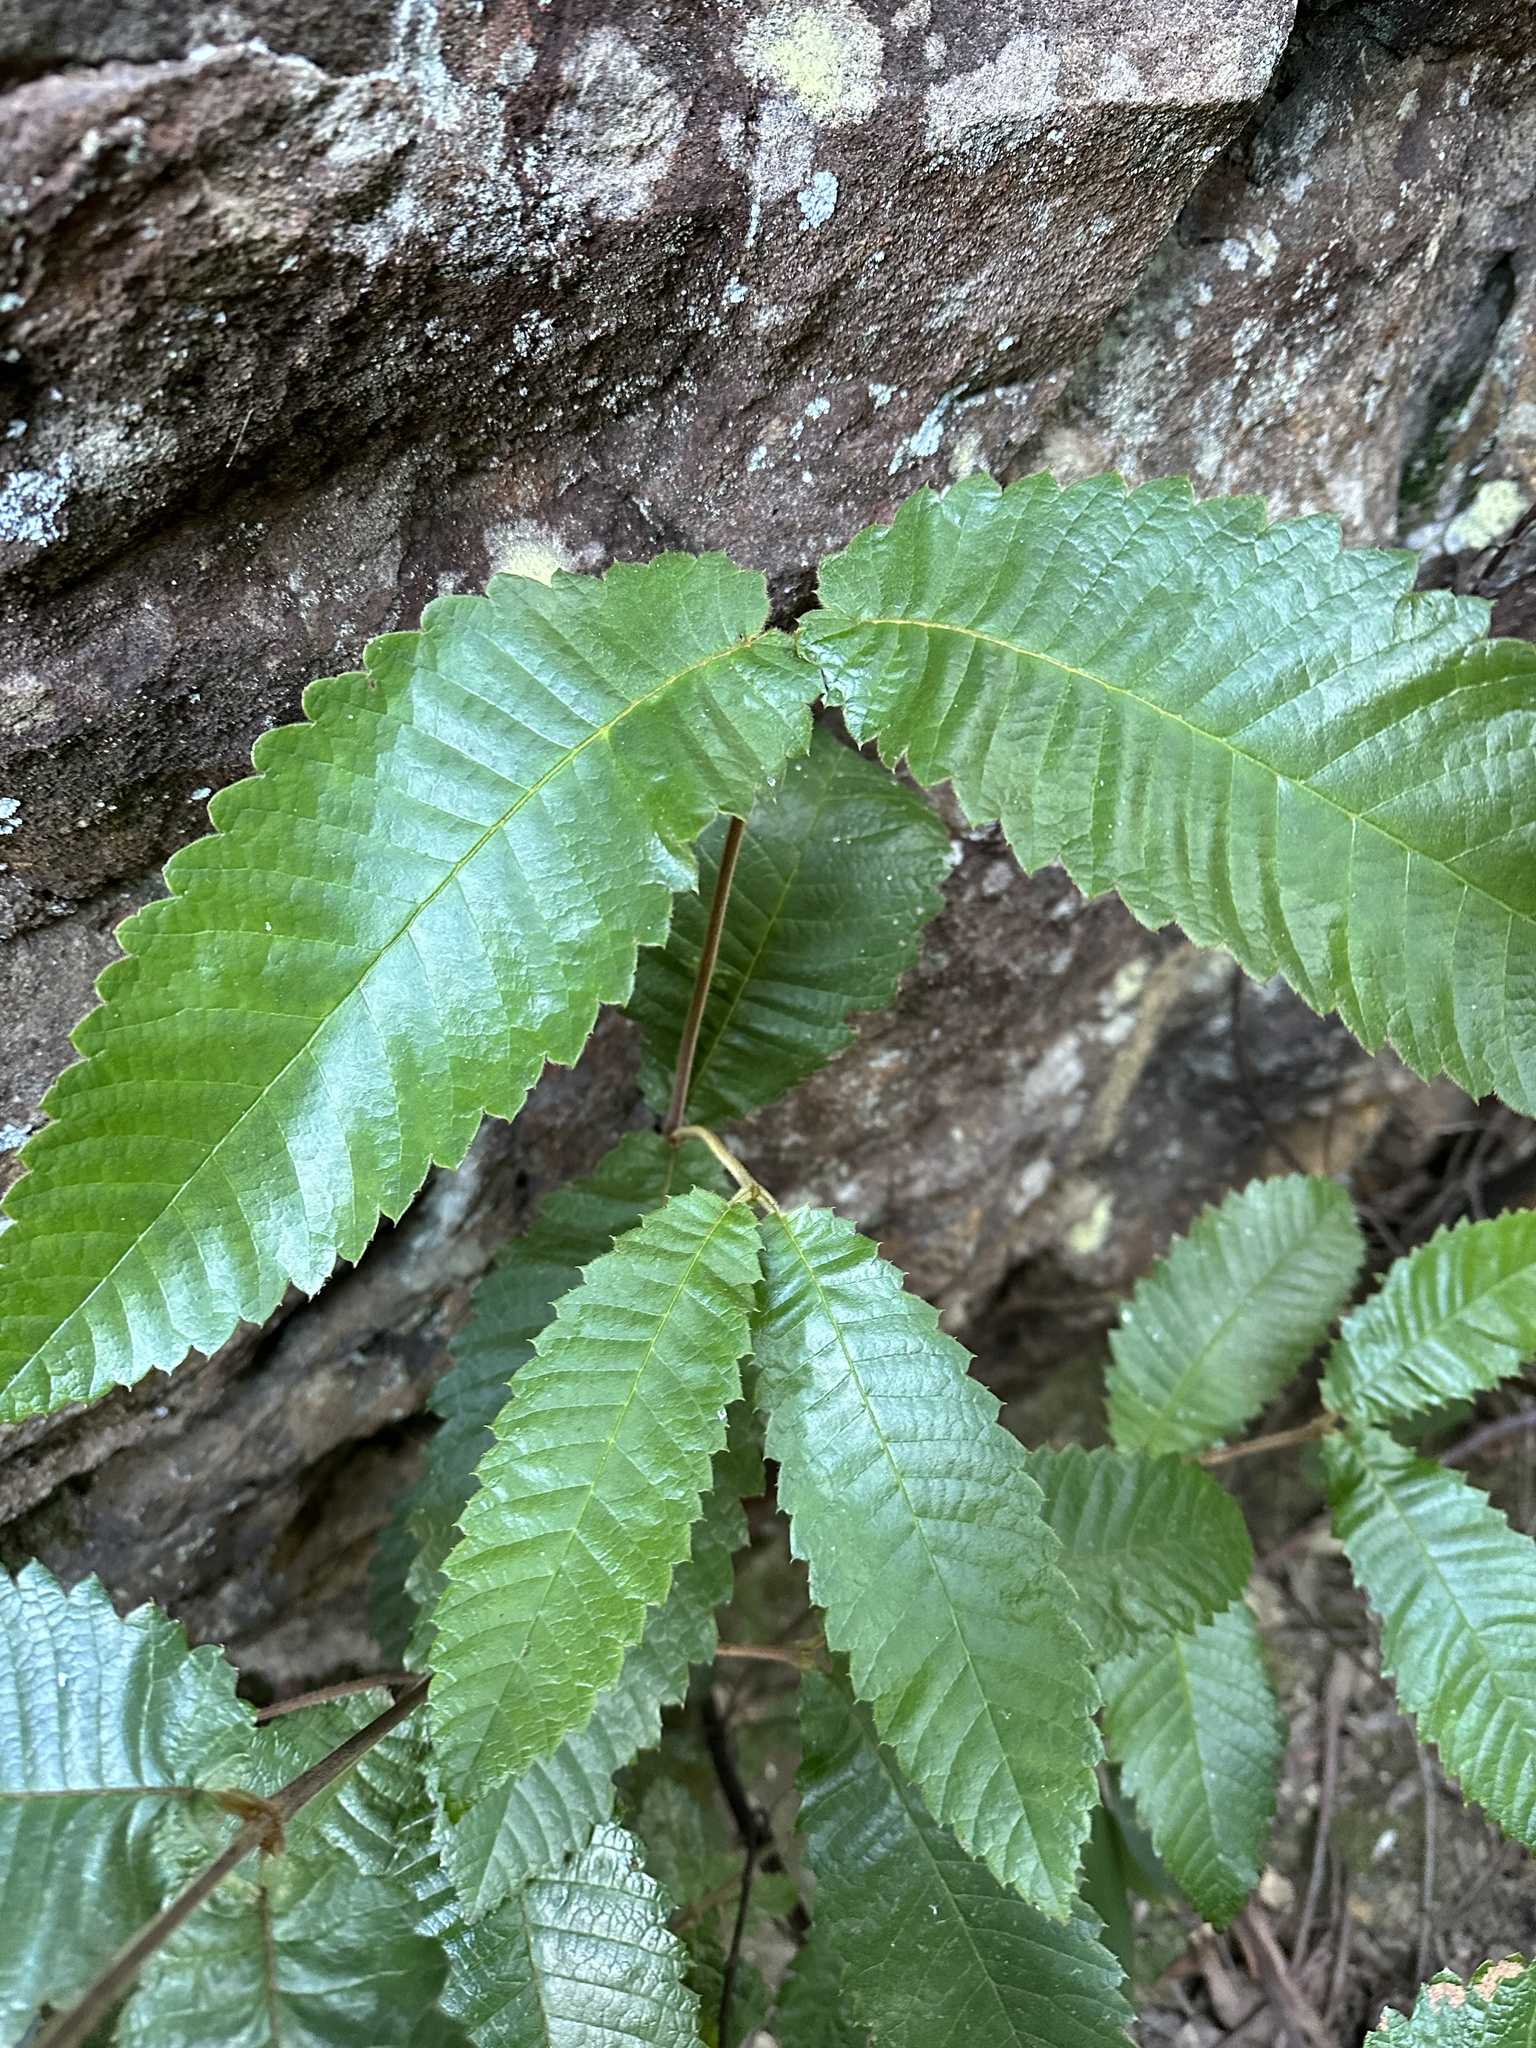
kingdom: Plantae
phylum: Tracheophyta
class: Magnoliopsida
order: Oxalidales
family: Cunoniaceae
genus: Callicoma
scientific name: Callicoma serratifolia
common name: Black wattle
